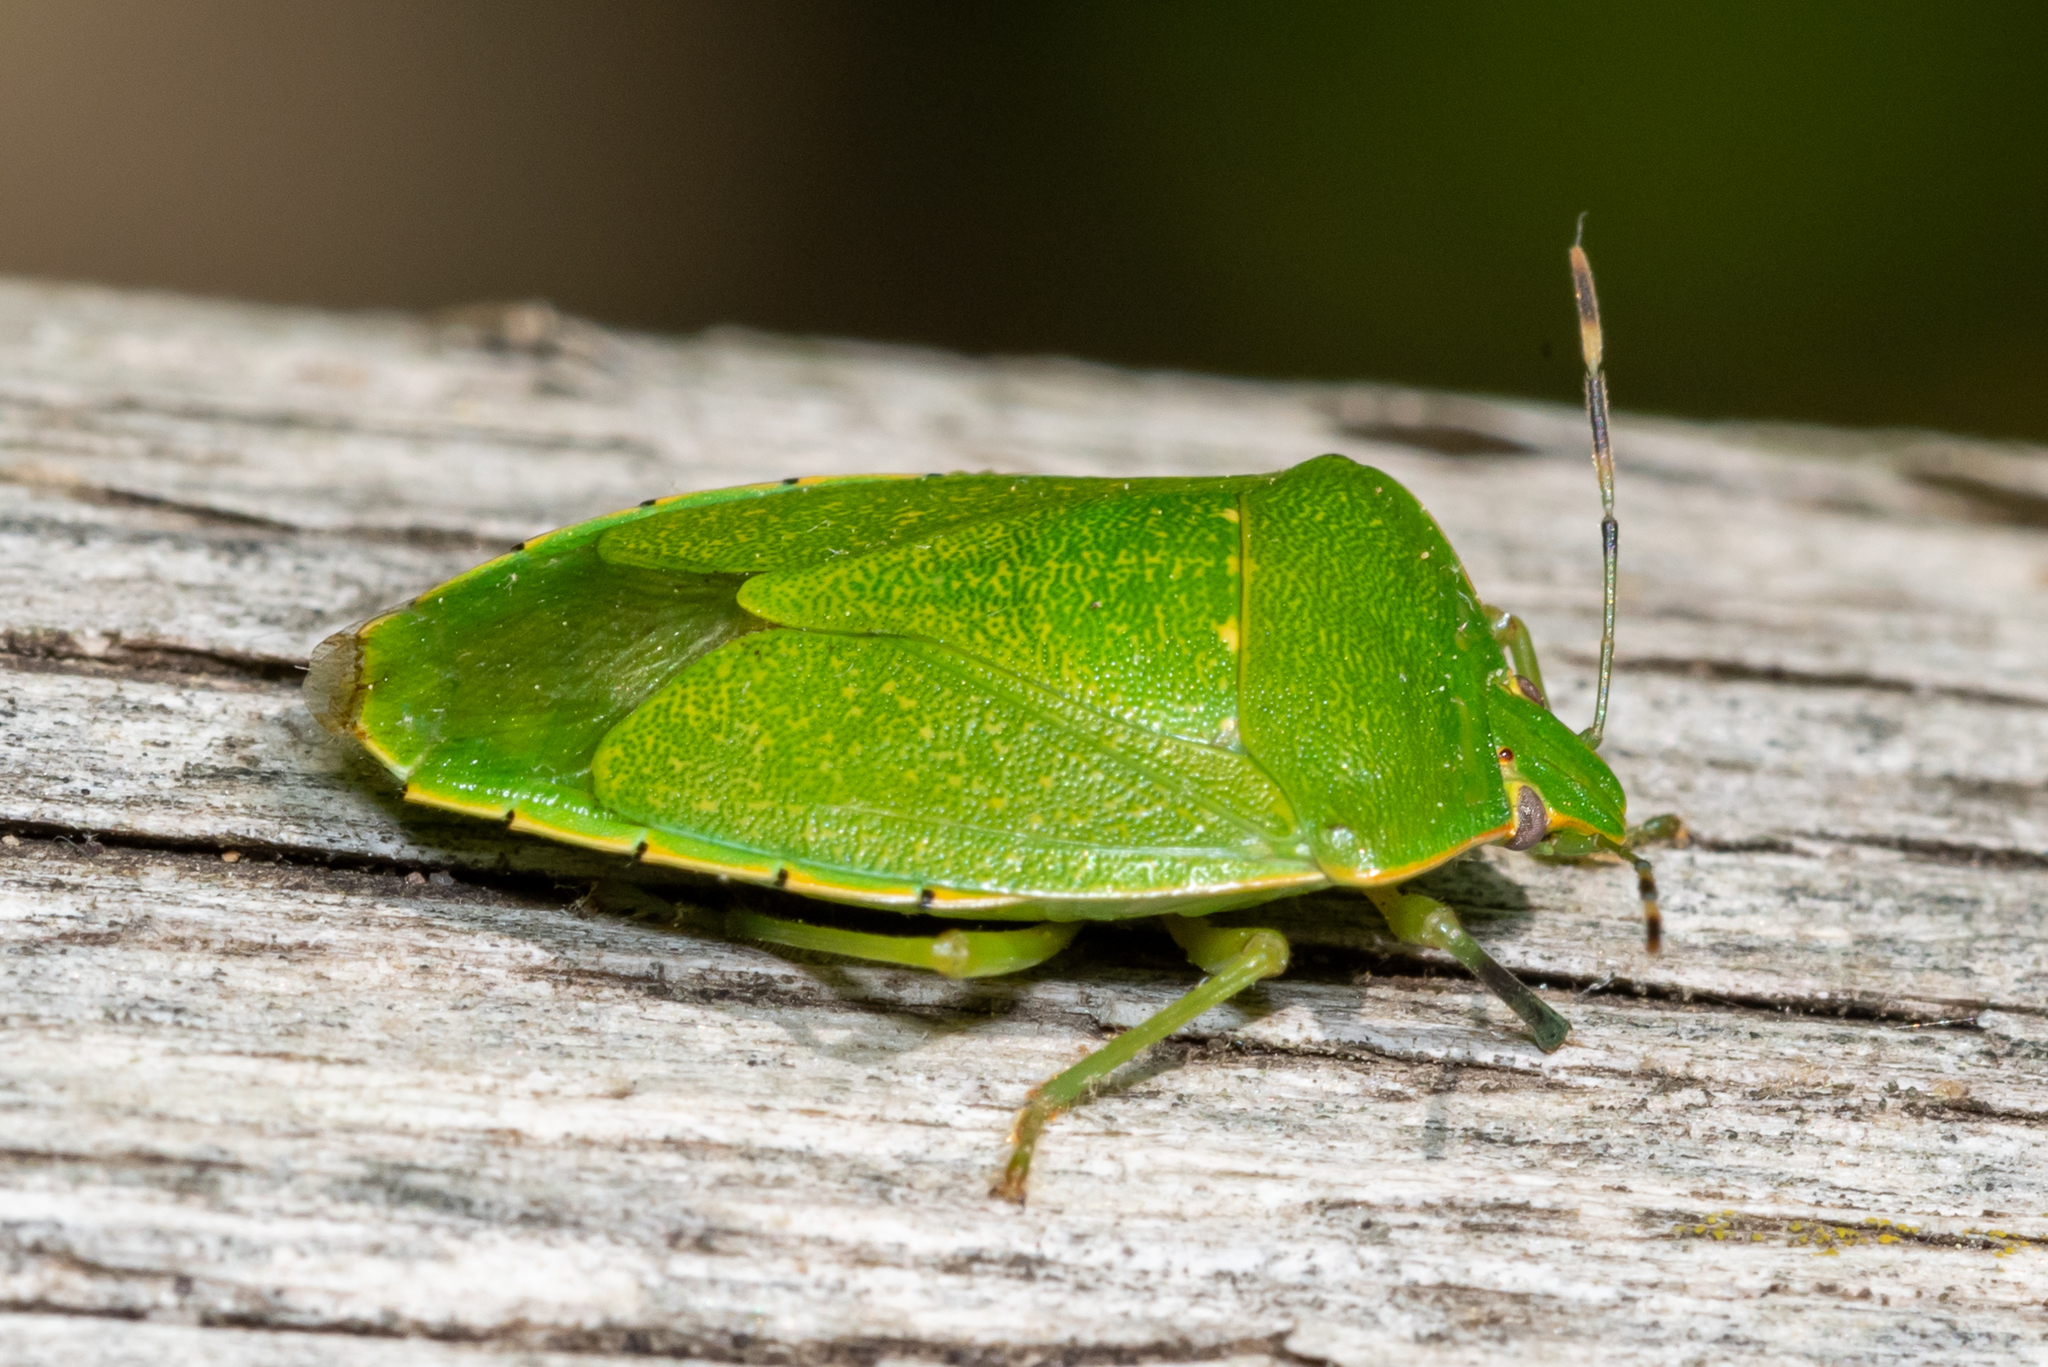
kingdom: Animalia
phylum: Arthropoda
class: Insecta
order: Hemiptera
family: Pentatomidae
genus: Chinavia
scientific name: Chinavia hilaris
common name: Green stink bug
